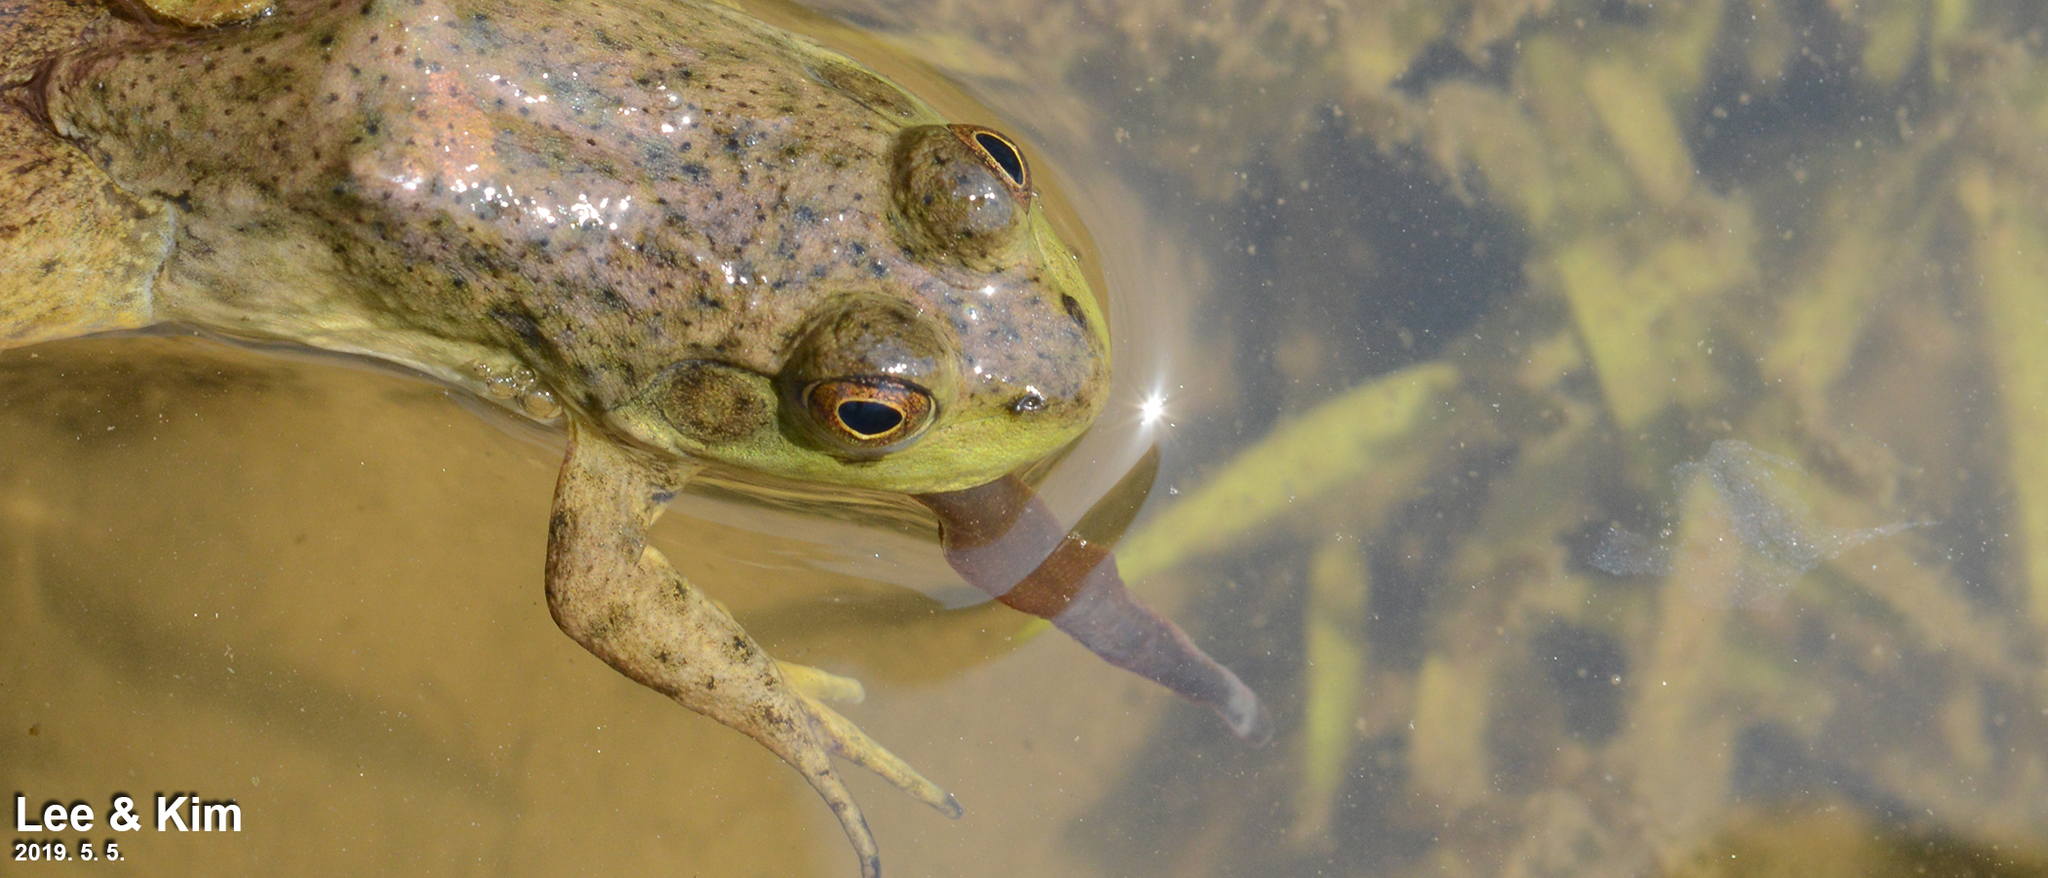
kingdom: Animalia
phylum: Chordata
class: Amphibia
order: Anura
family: Ranidae
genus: Lithobates
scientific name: Lithobates catesbeianus
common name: American bullfrog
